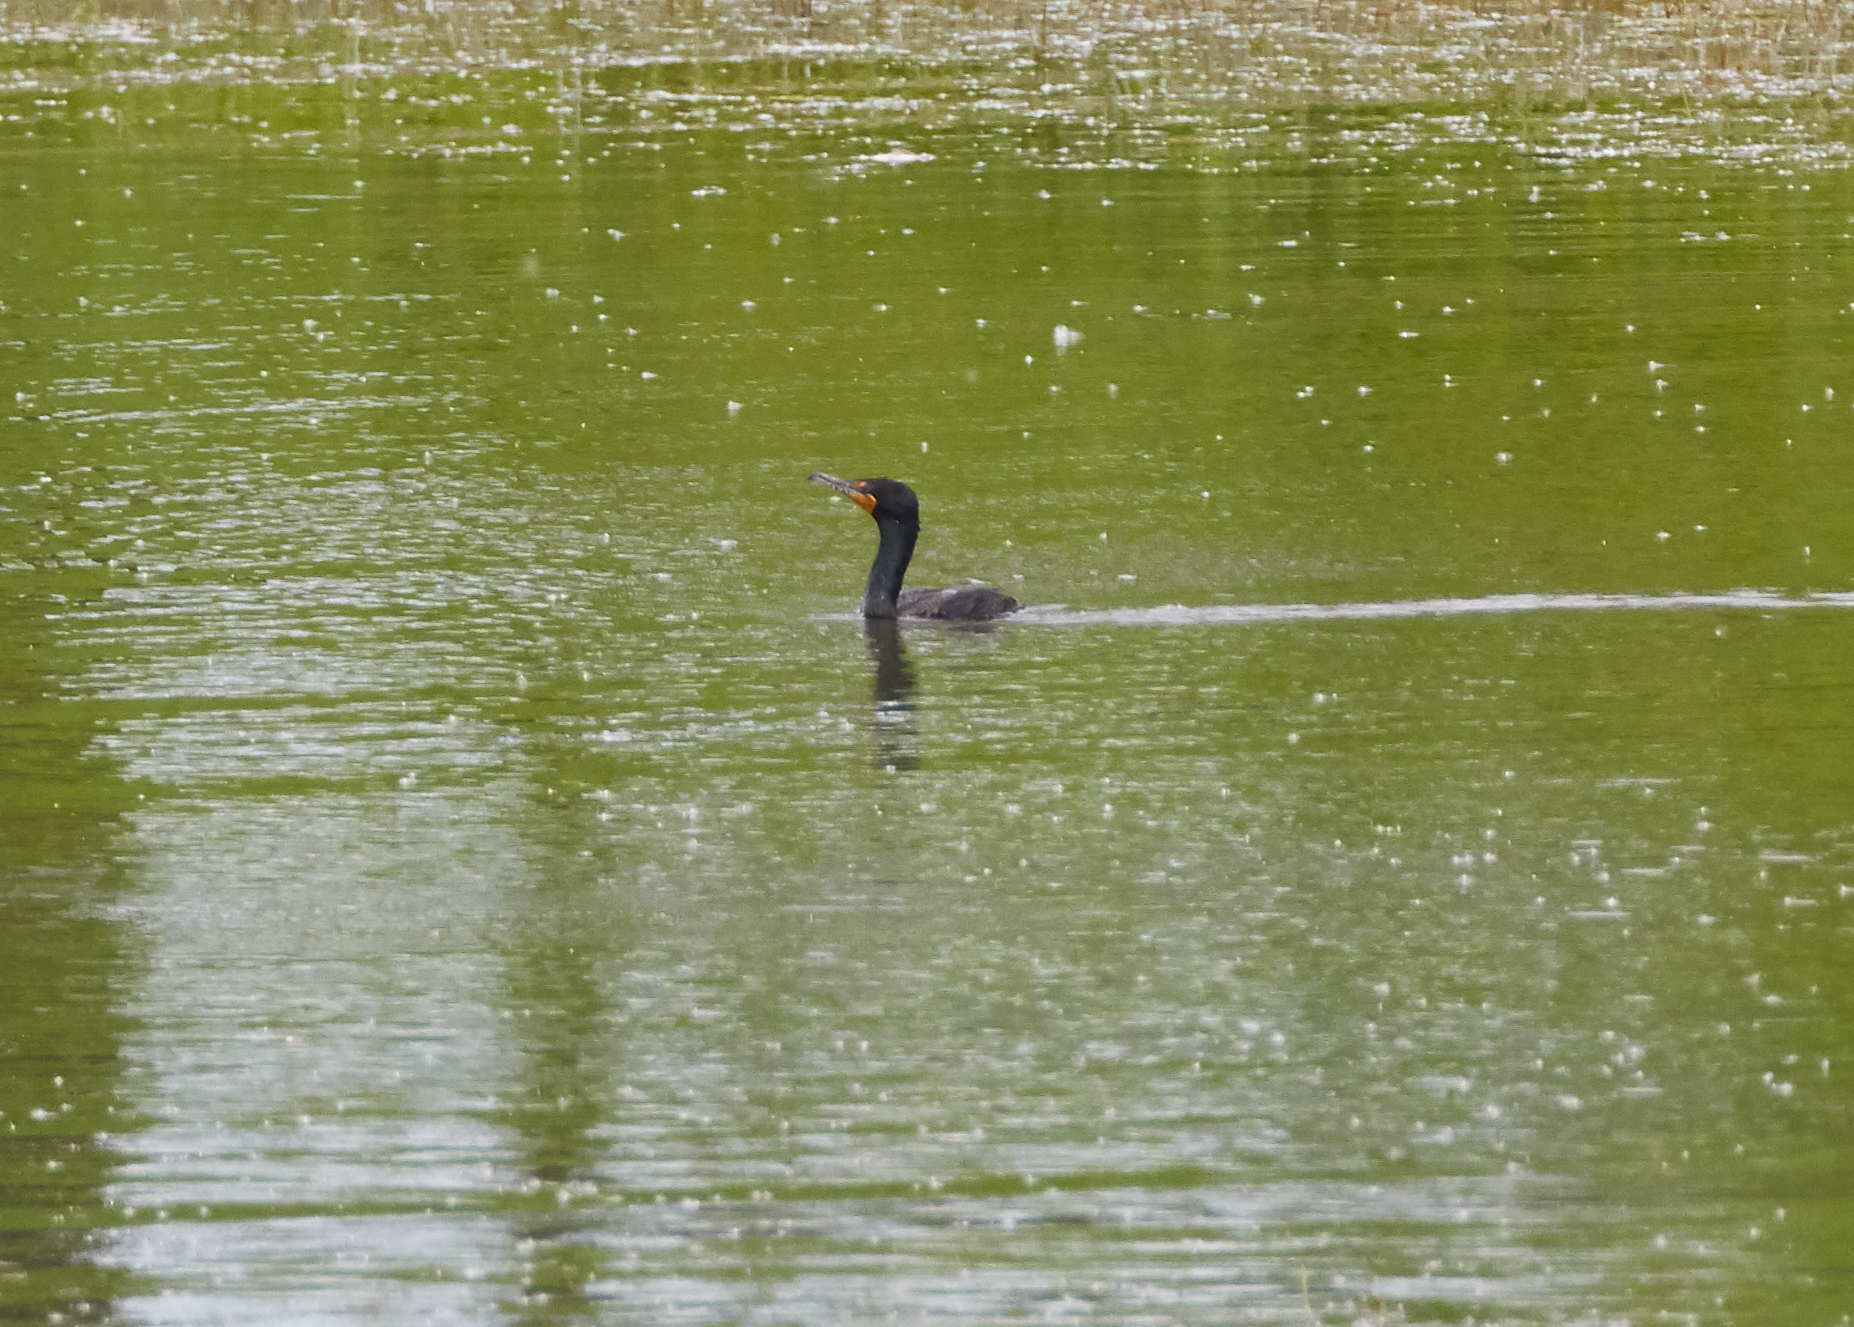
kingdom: Animalia
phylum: Chordata
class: Aves
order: Suliformes
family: Phalacrocoracidae
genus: Phalacrocorax
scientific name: Phalacrocorax auritus
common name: Double-crested cormorant
